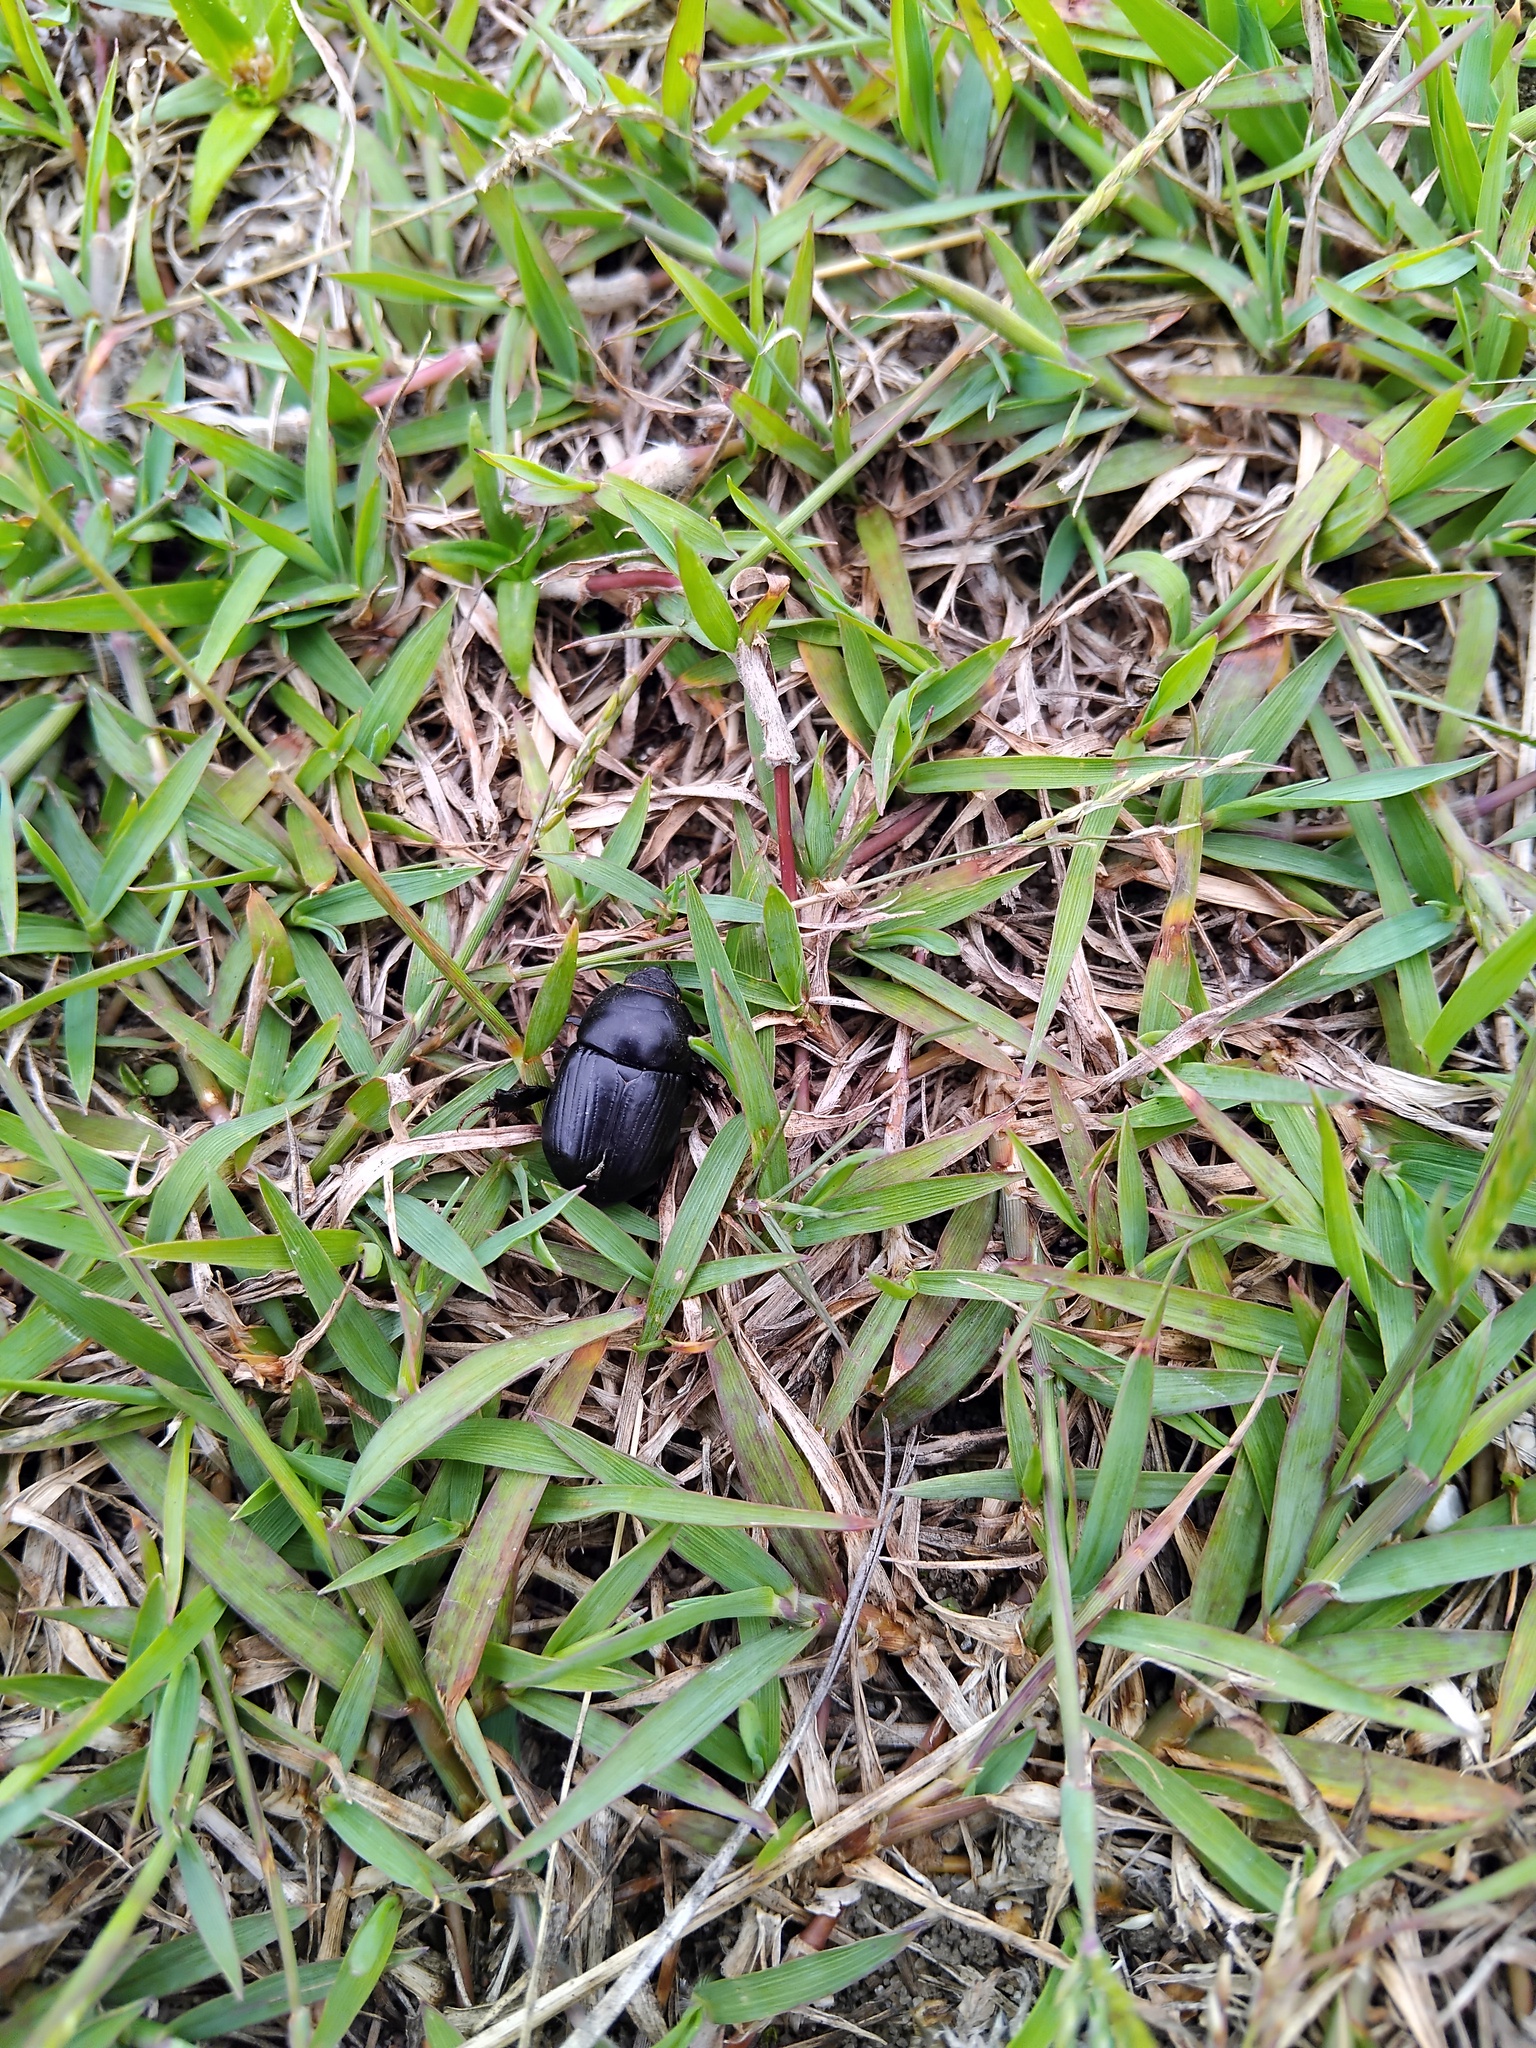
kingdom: Animalia
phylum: Arthropoda
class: Insecta
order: Coleoptera
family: Scarabaeidae
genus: Heteronychus
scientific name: Heteronychus arator
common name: African black beetle
